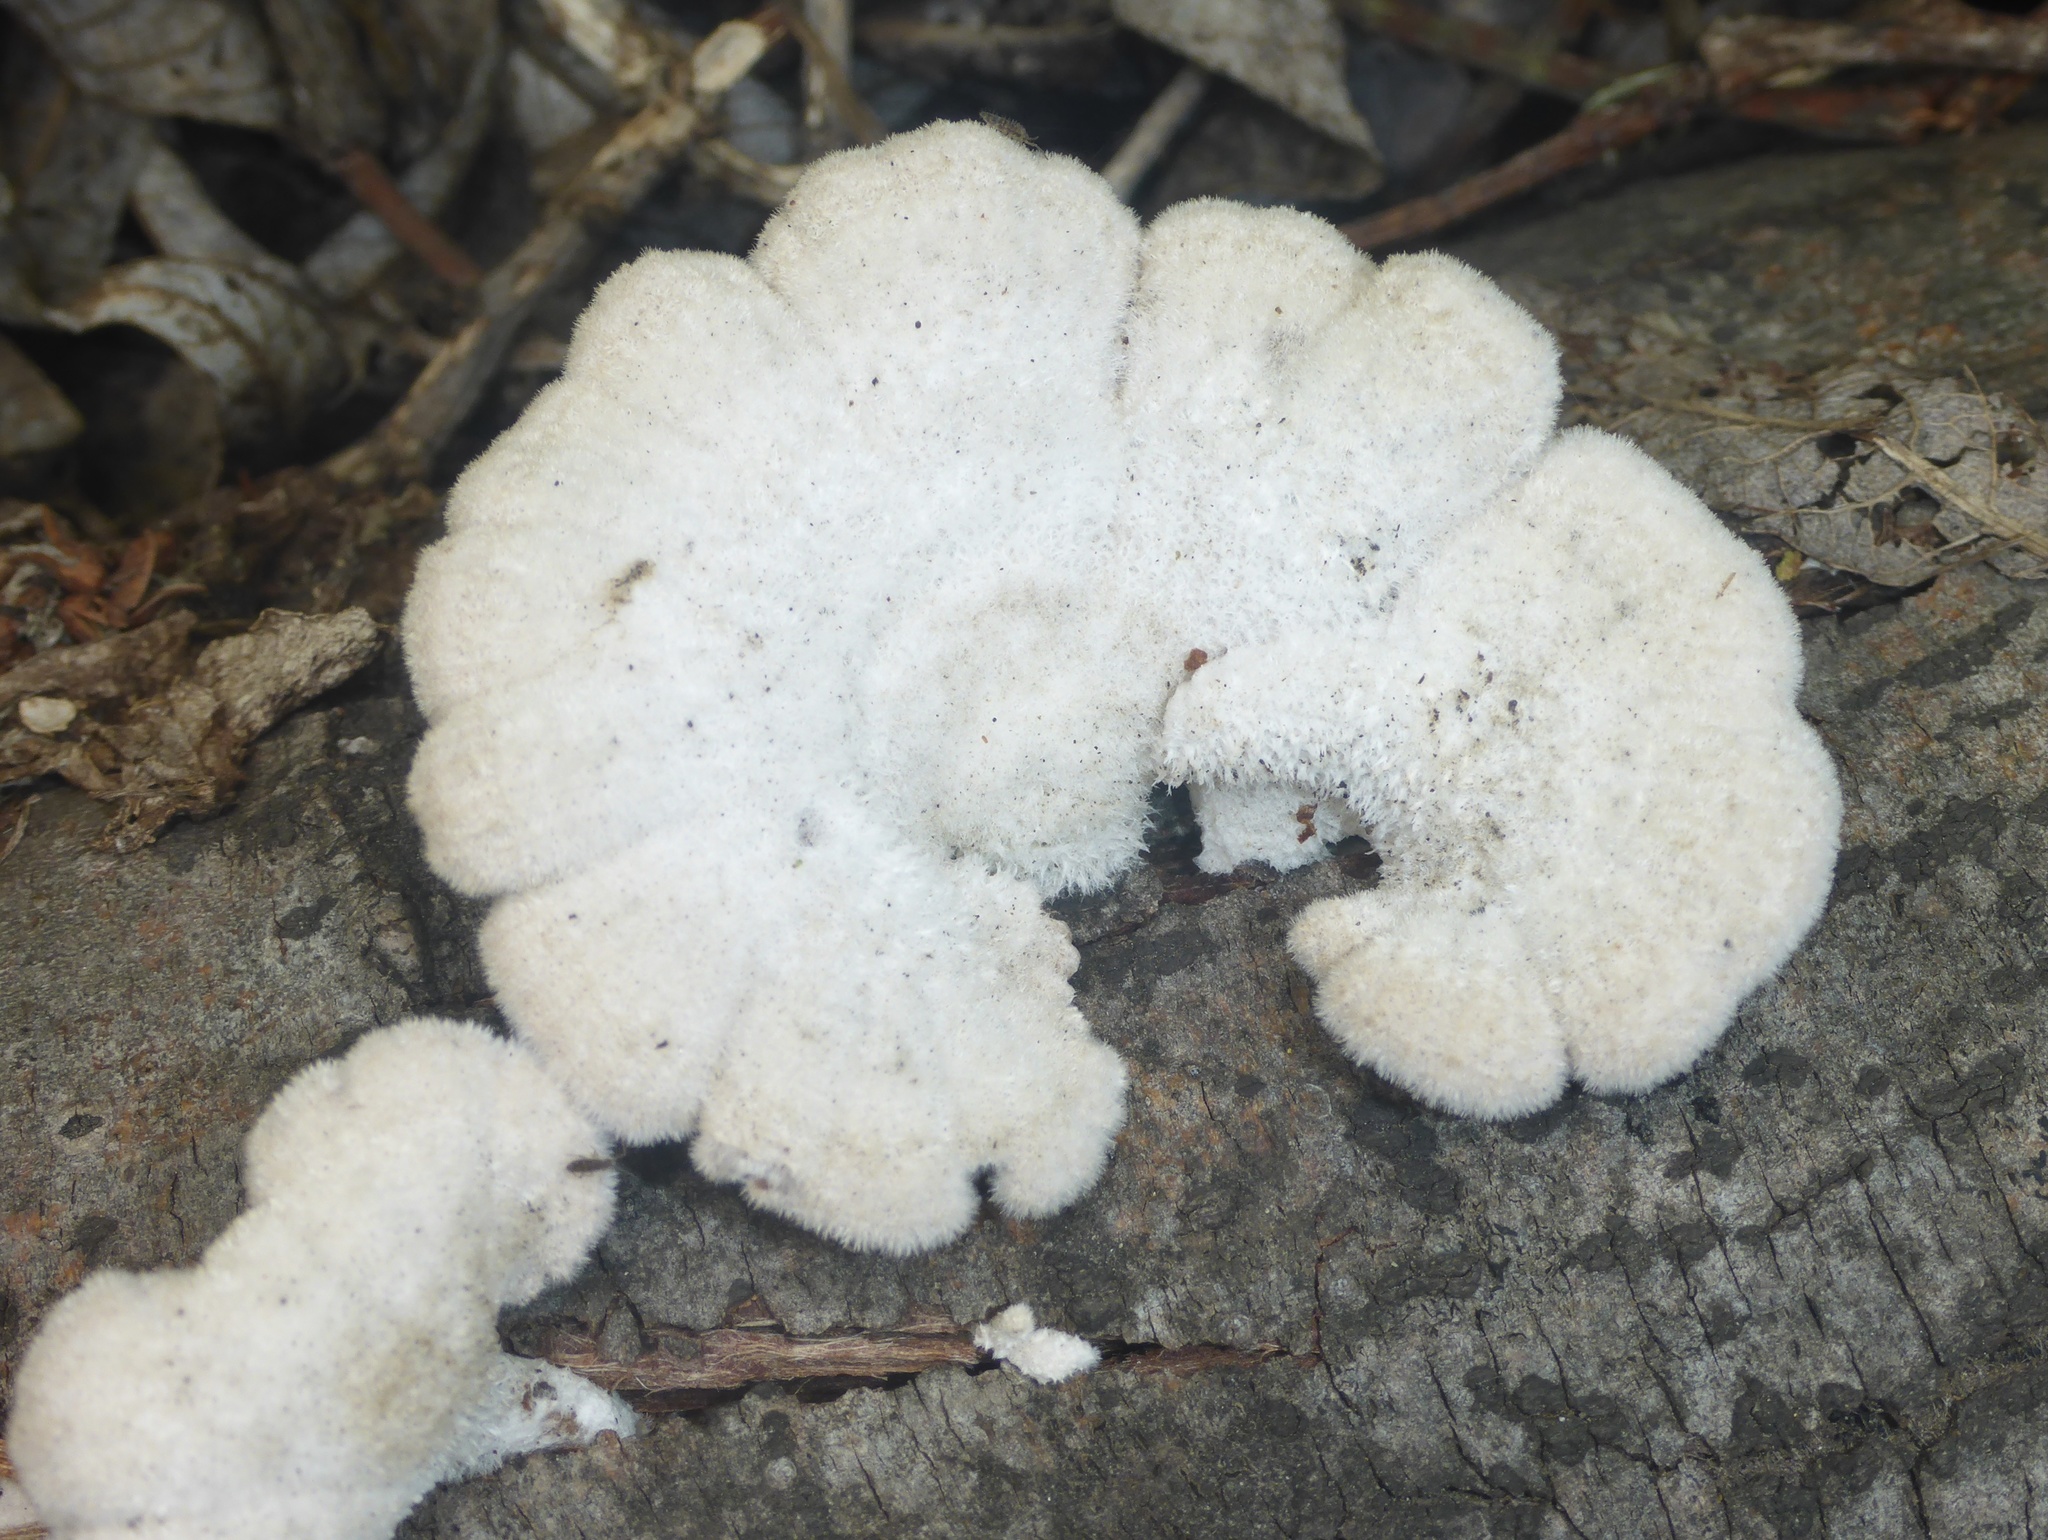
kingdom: Fungi
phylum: Basidiomycota
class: Agaricomycetes
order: Agaricales
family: Schizophyllaceae
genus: Schizophyllum
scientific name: Schizophyllum commune
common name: Common porecrust
